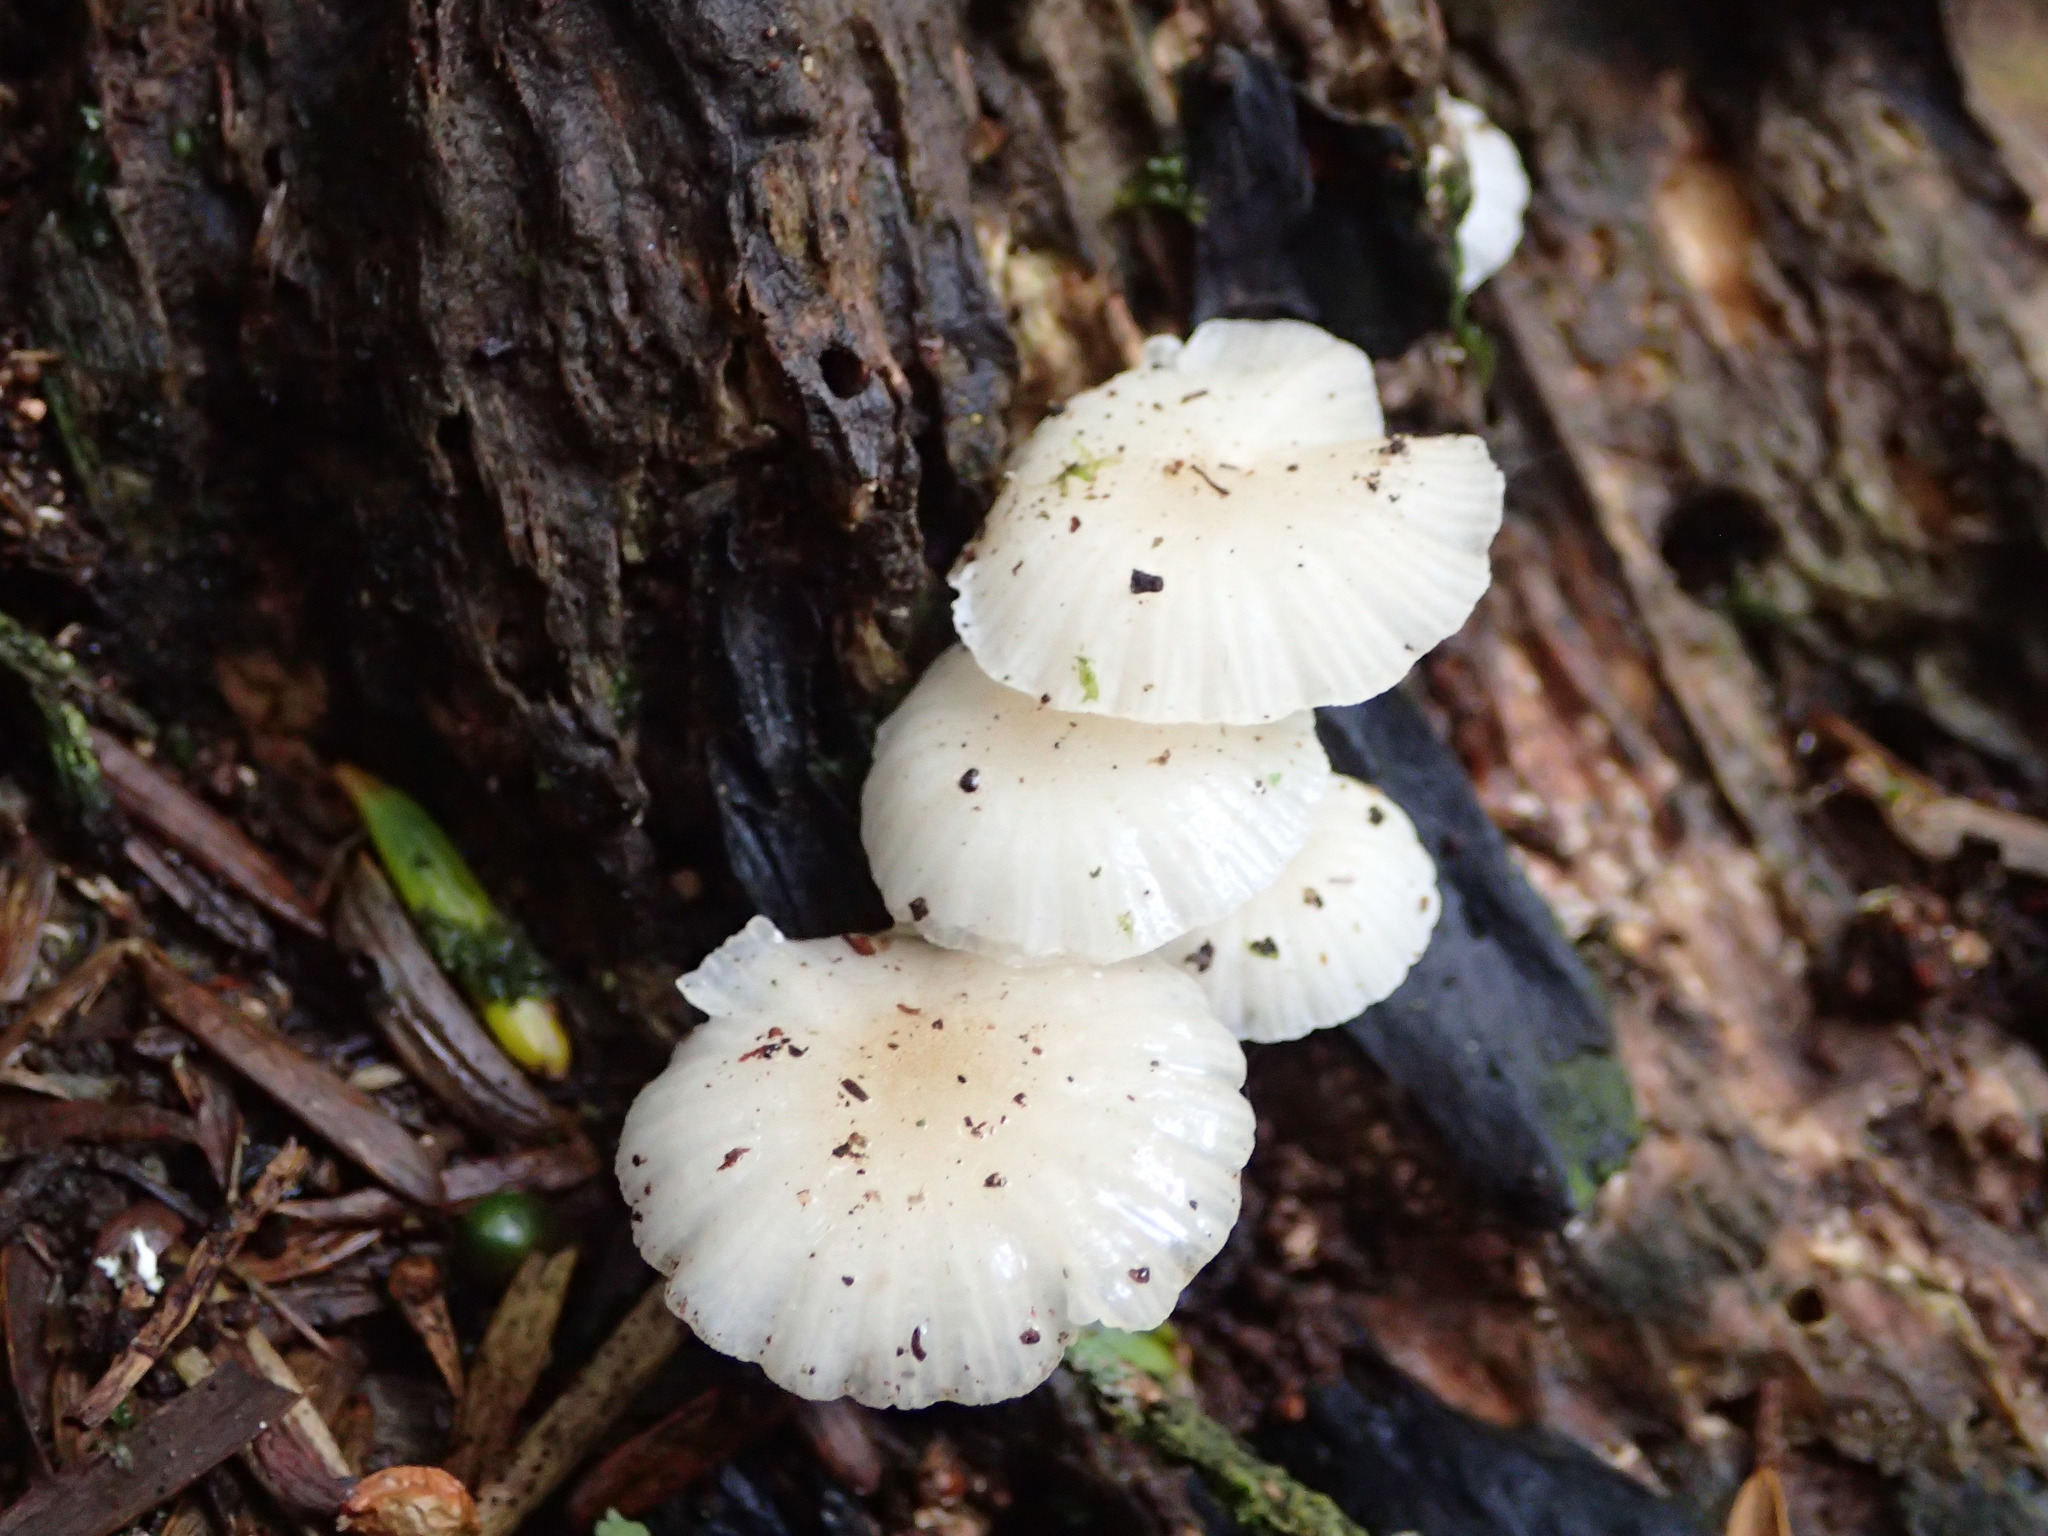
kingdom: Fungi
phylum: Basidiomycota
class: Agaricomycetes
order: Agaricales
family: Mycenaceae
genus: Roridomyces
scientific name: Roridomyces austrororidus
